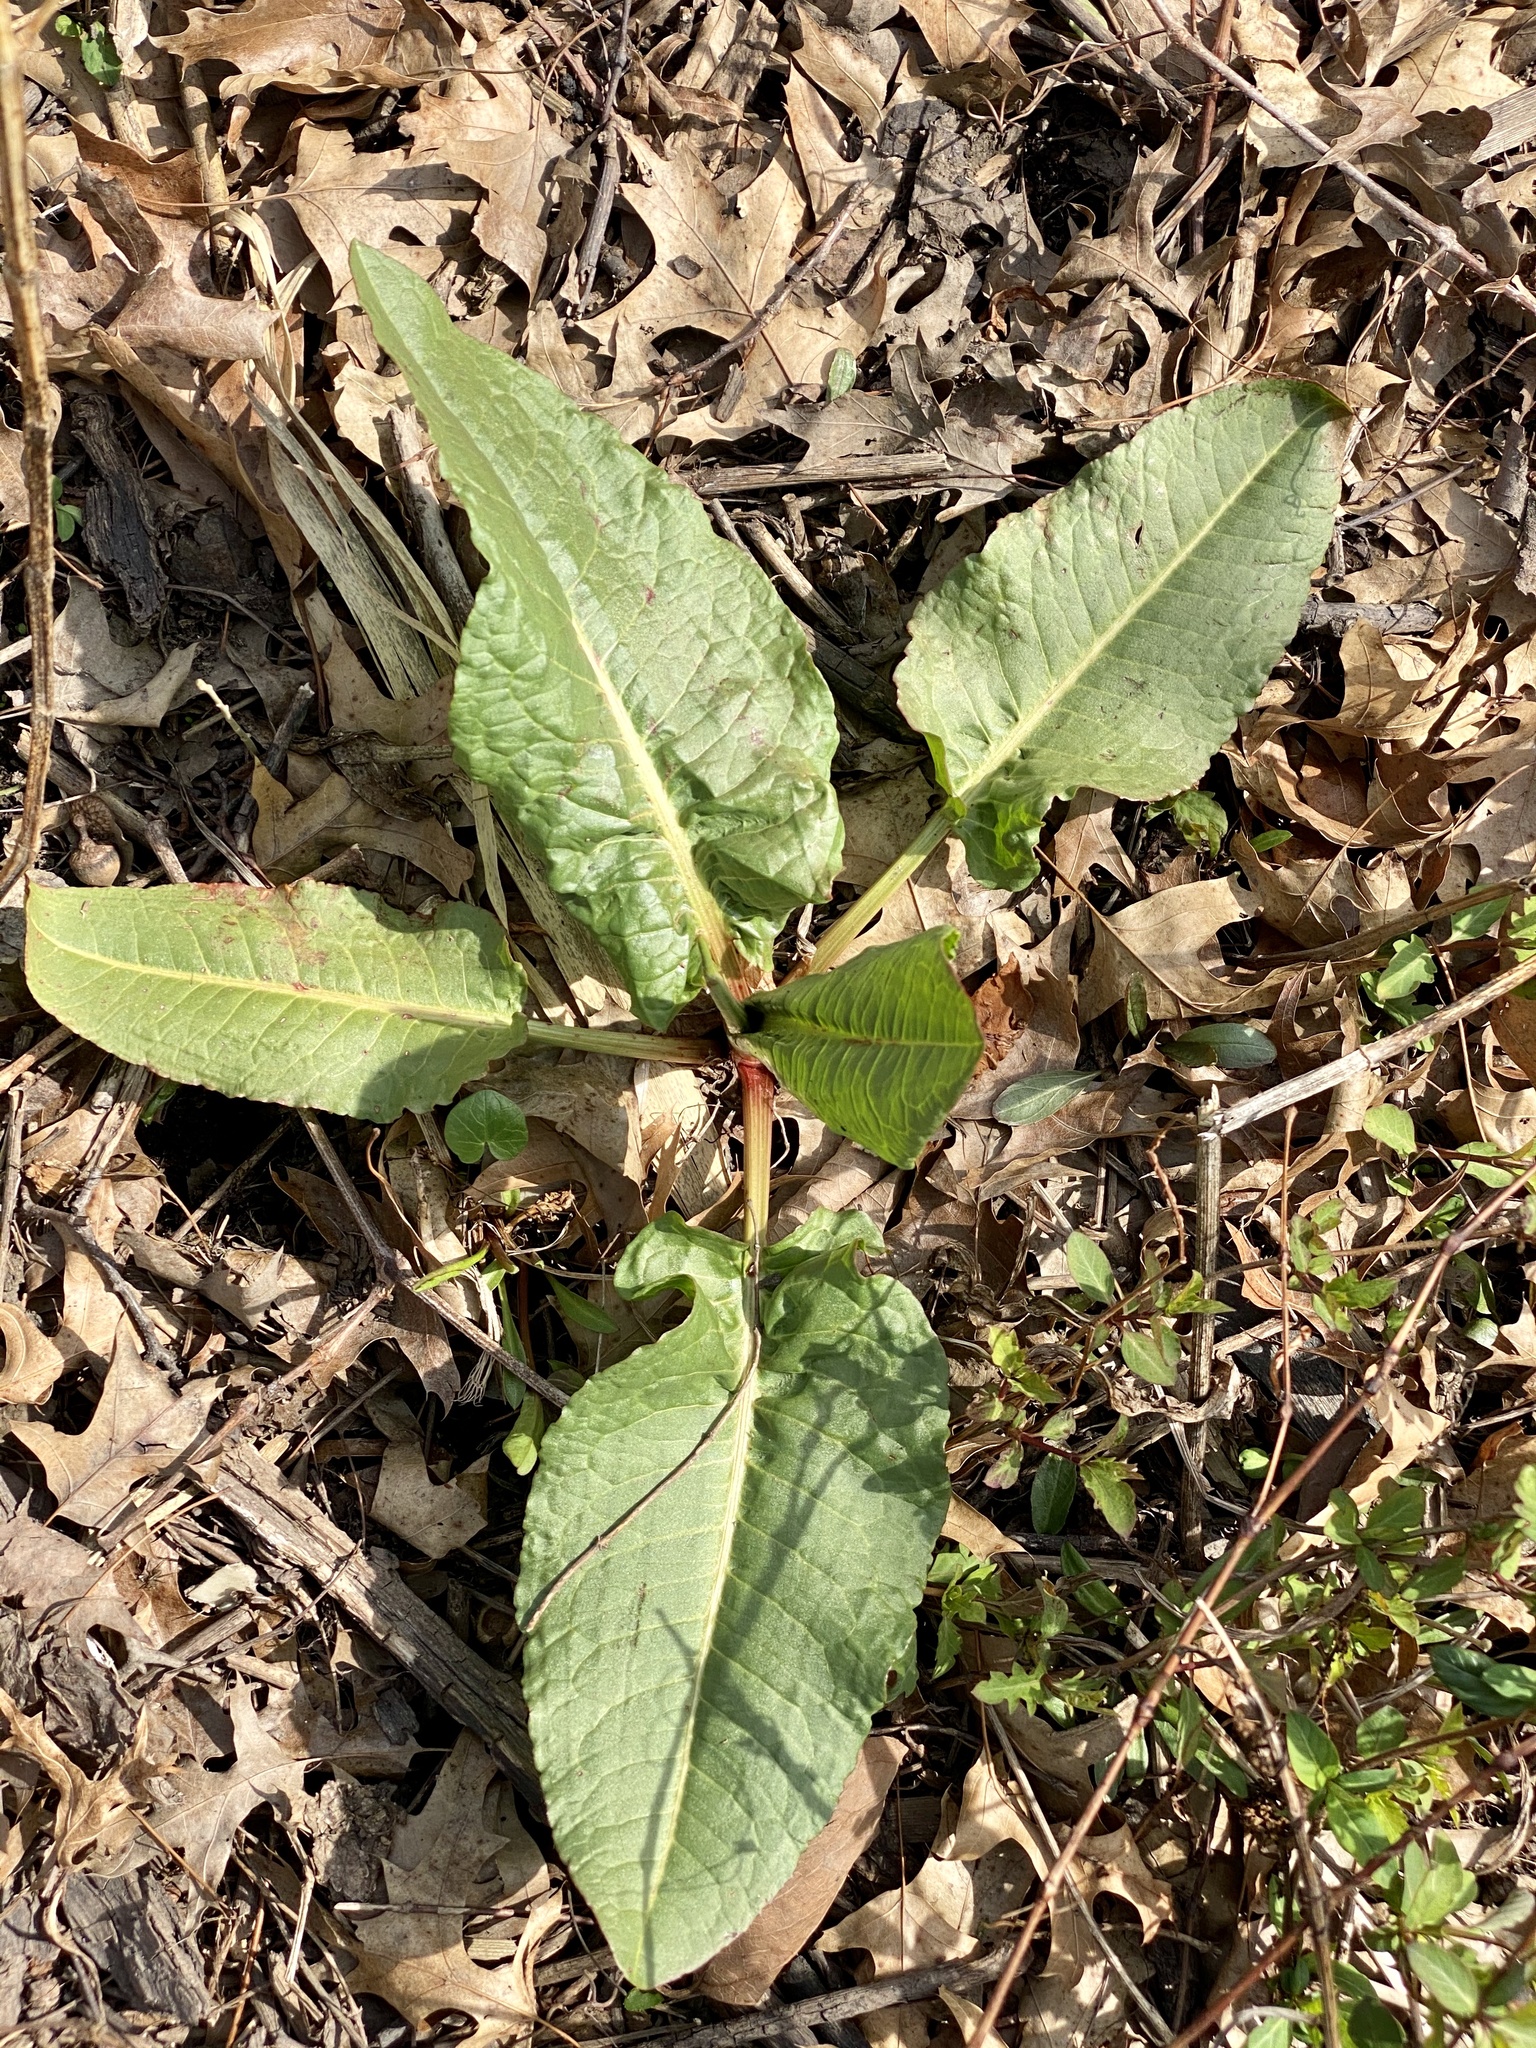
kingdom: Plantae
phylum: Tracheophyta
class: Magnoliopsida
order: Caryophyllales
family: Polygonaceae
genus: Rumex
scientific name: Rumex obtusifolius
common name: Bitter dock
